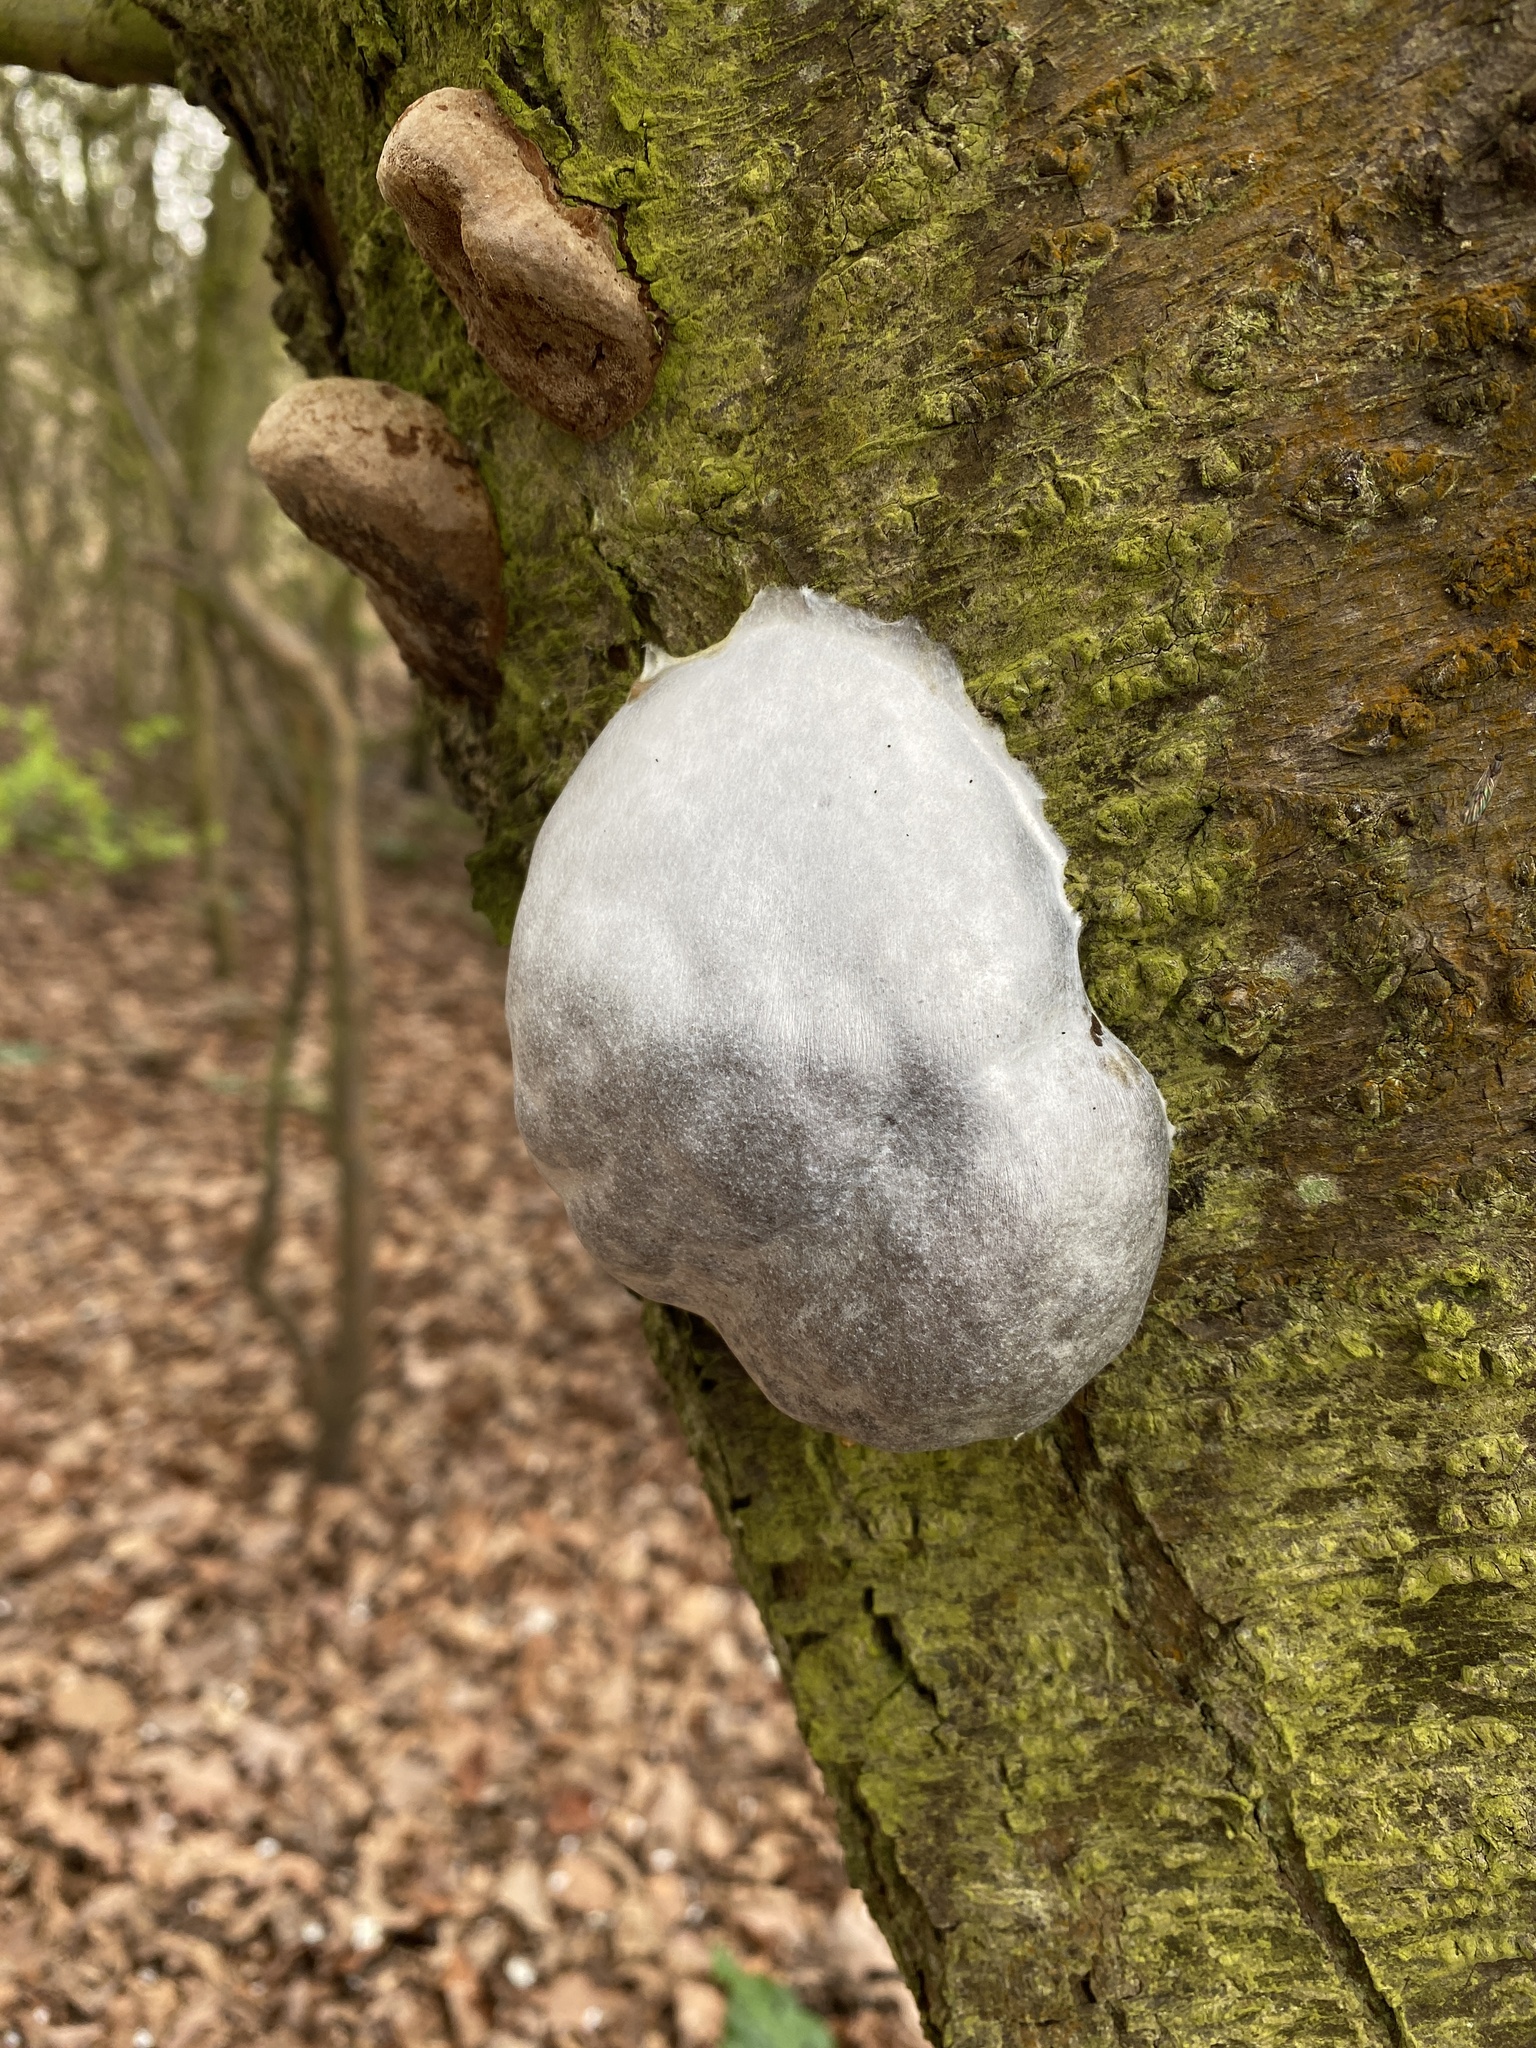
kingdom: Protozoa
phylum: Mycetozoa
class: Myxomycetes
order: Cribrariales
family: Tubiferaceae
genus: Reticularia
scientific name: Reticularia lycoperdon
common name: False puffball
